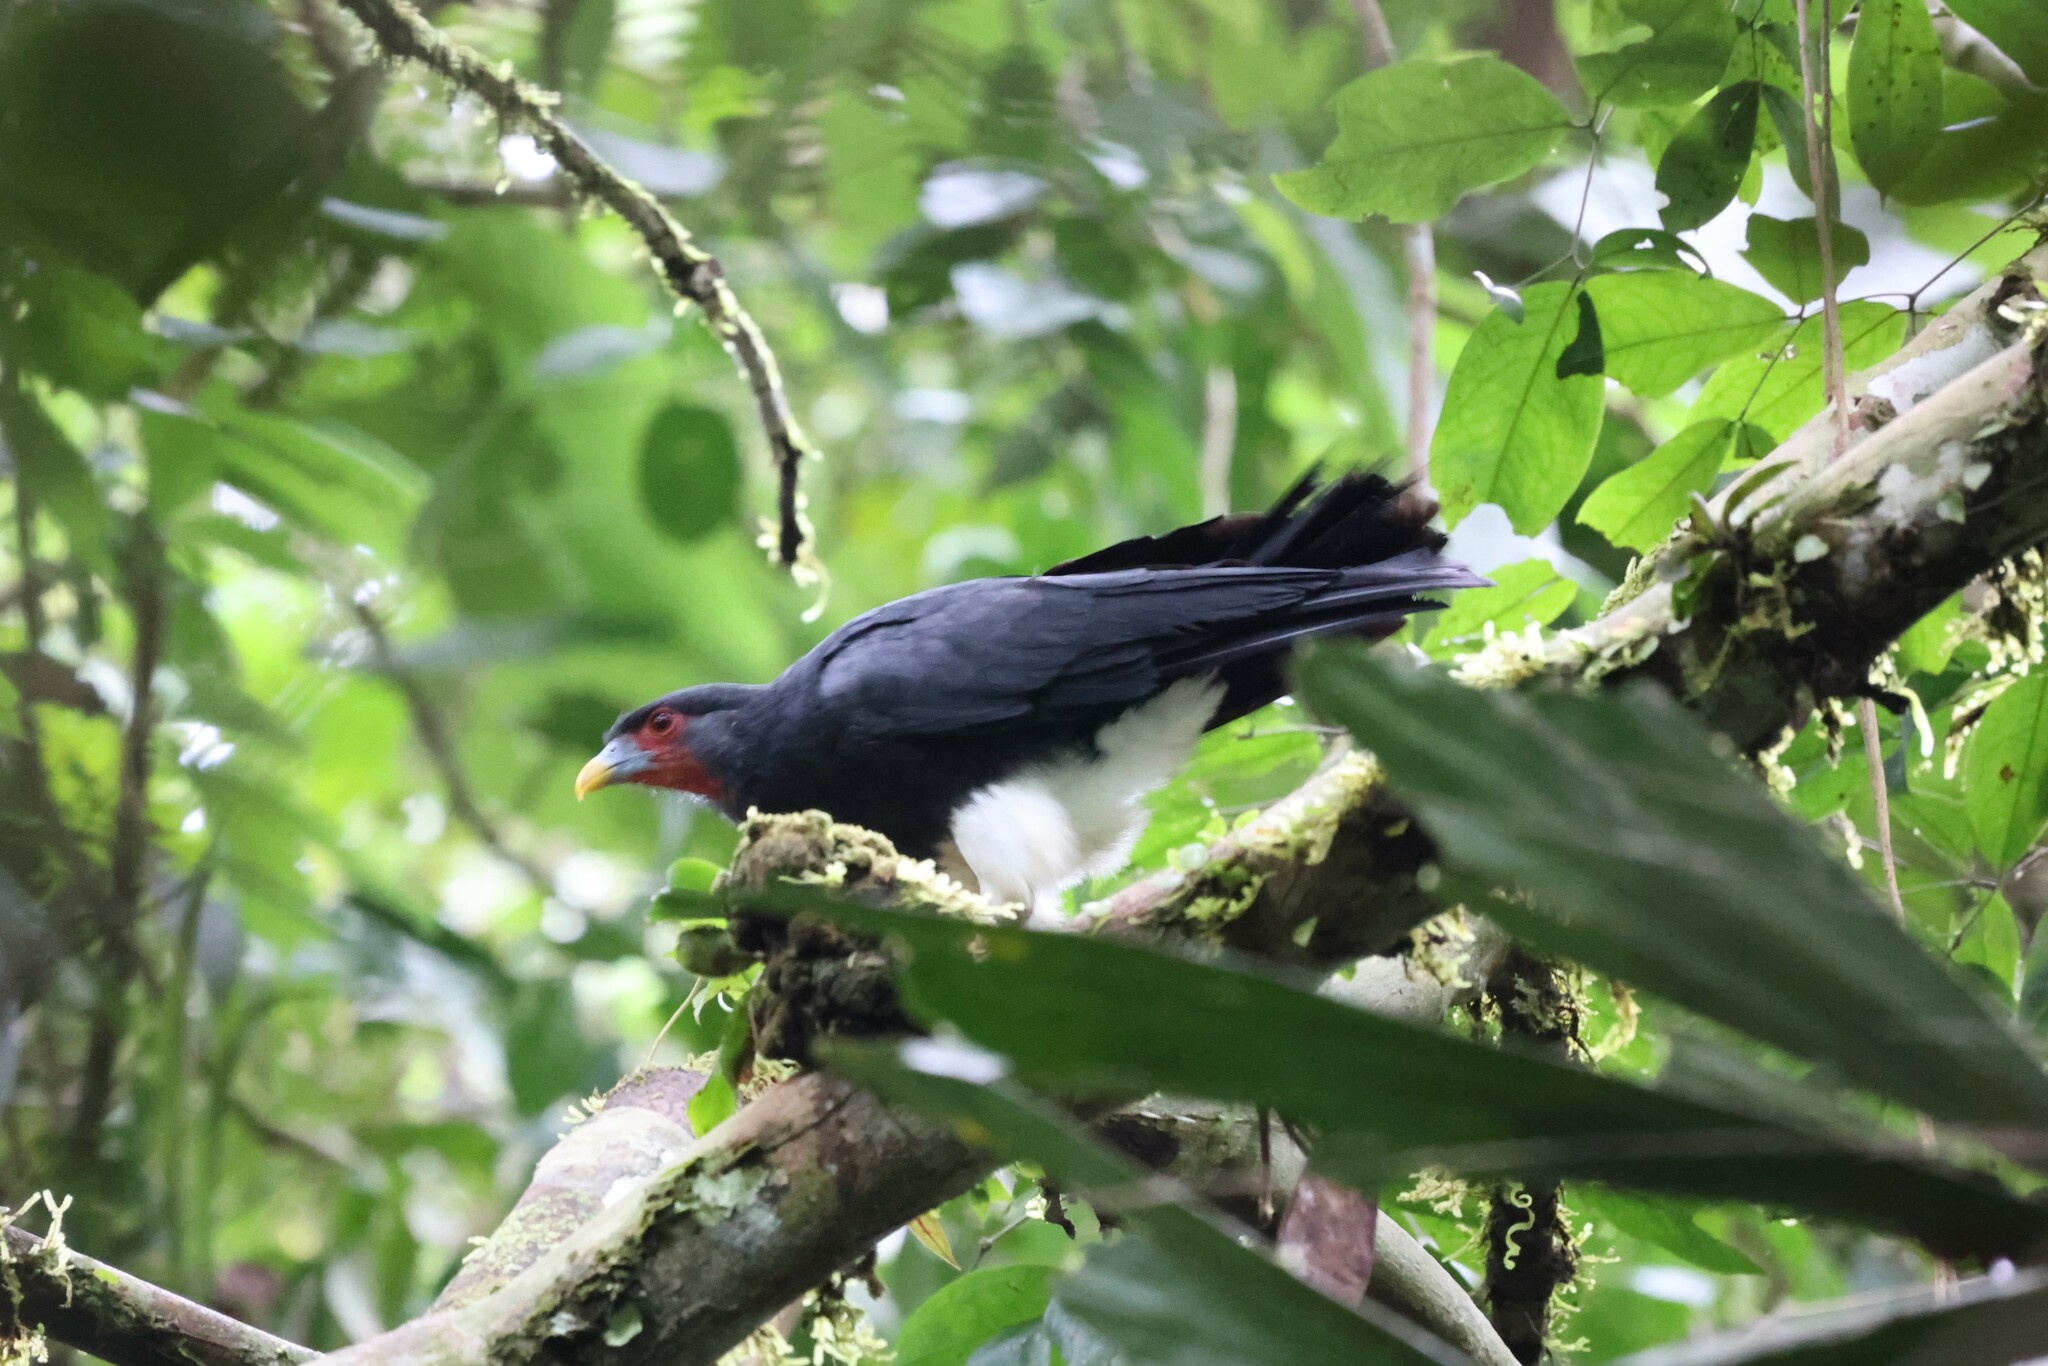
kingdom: Animalia
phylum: Chordata
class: Aves
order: Falconiformes
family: Falconidae
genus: Ibycter
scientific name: Ibycter americanus
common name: Red-throated caracara
